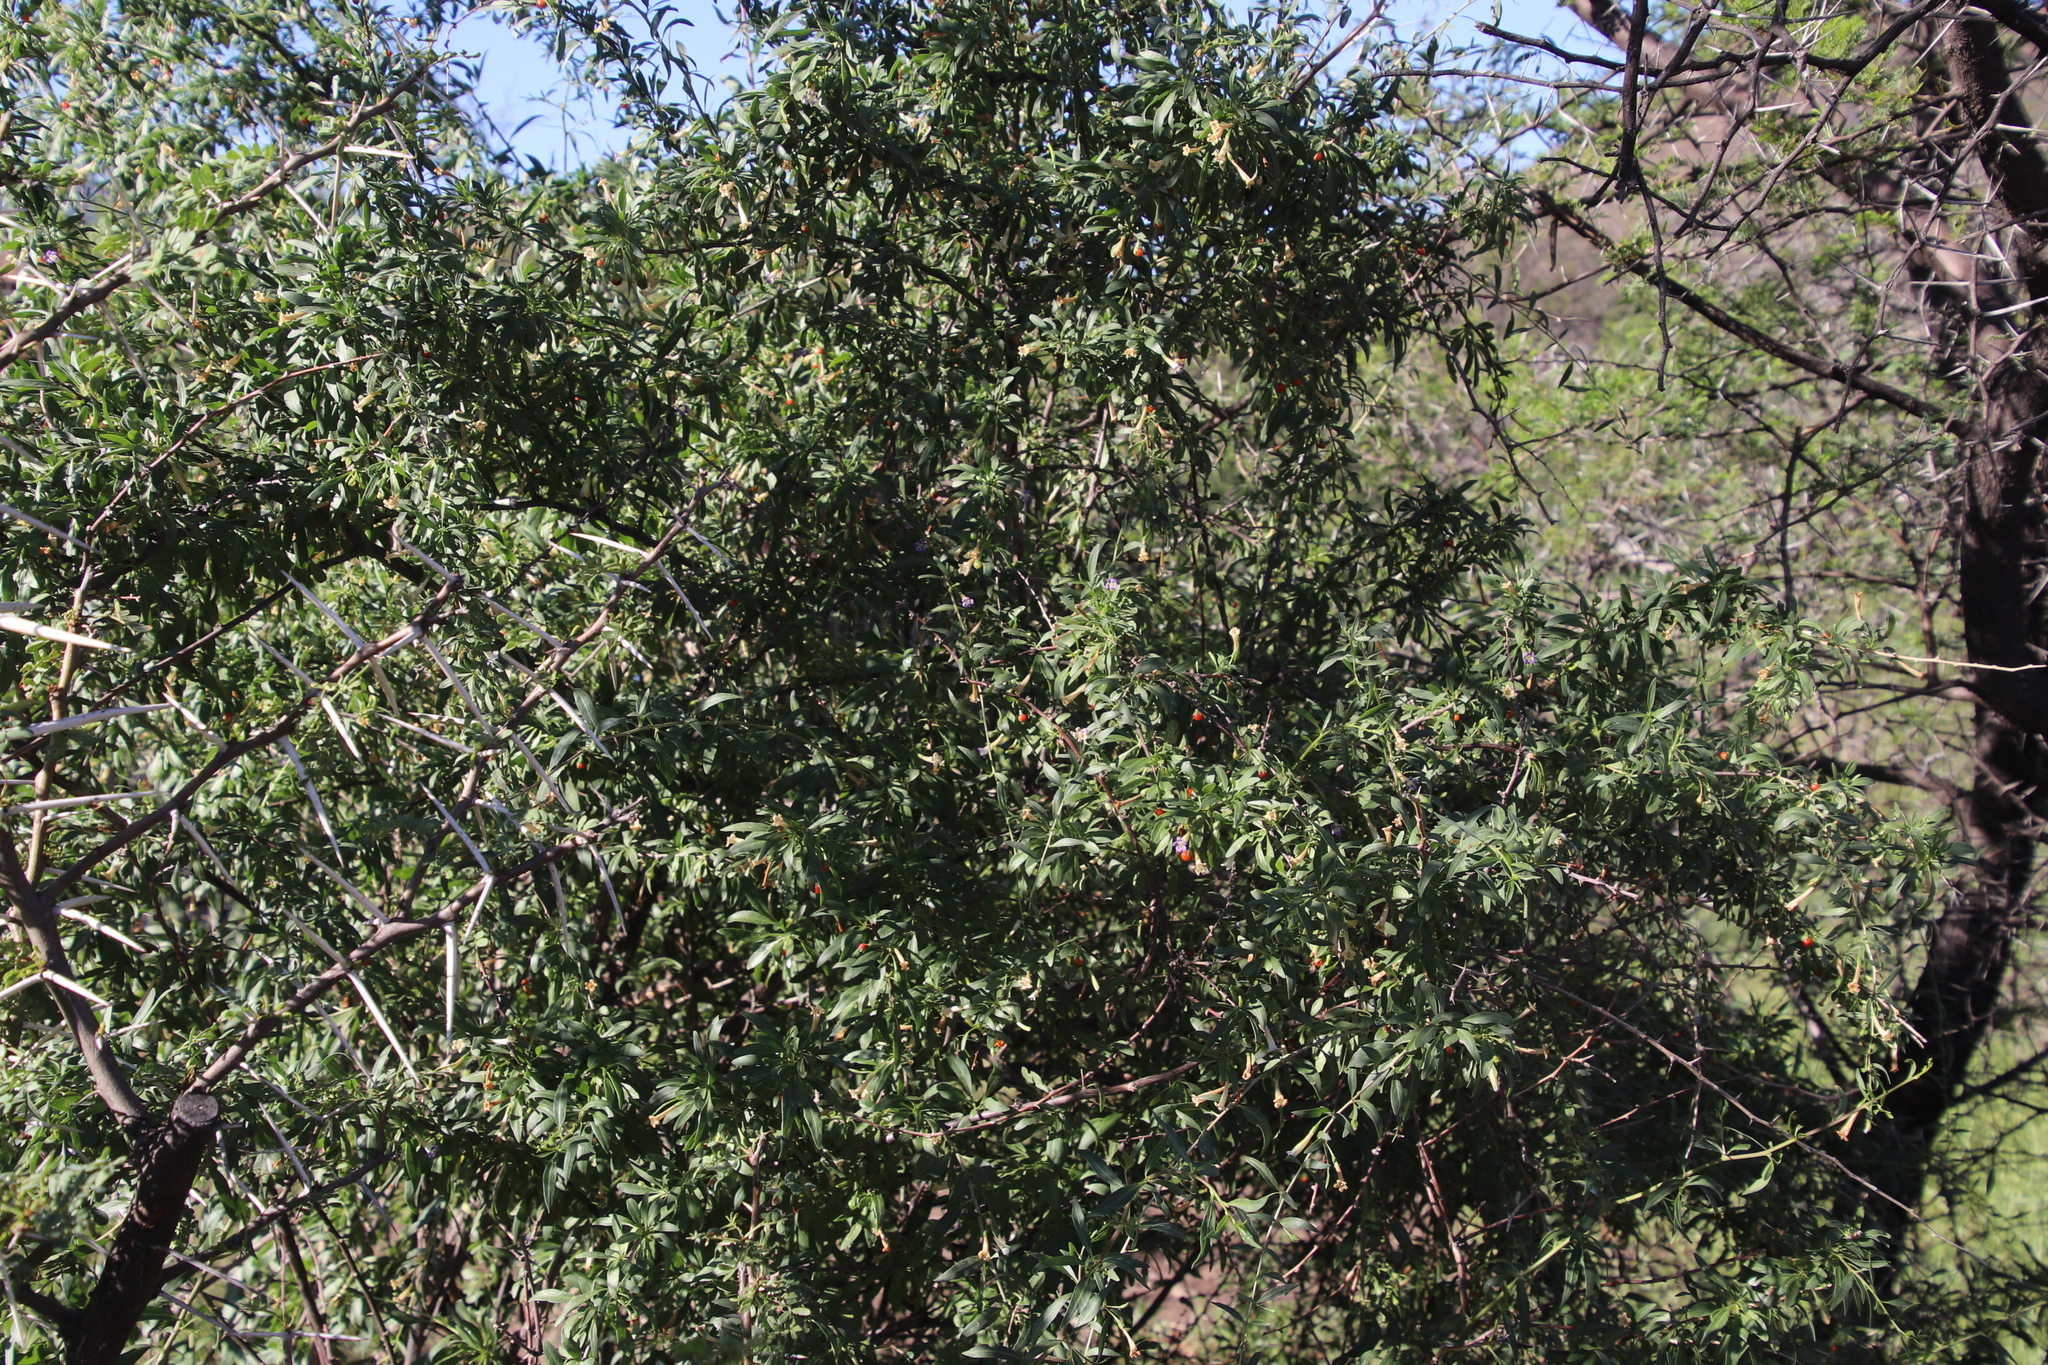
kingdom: Plantae
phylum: Tracheophyta
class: Magnoliopsida
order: Solanales
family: Solanaceae
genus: Lycium
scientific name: Lycium oxycarpum
